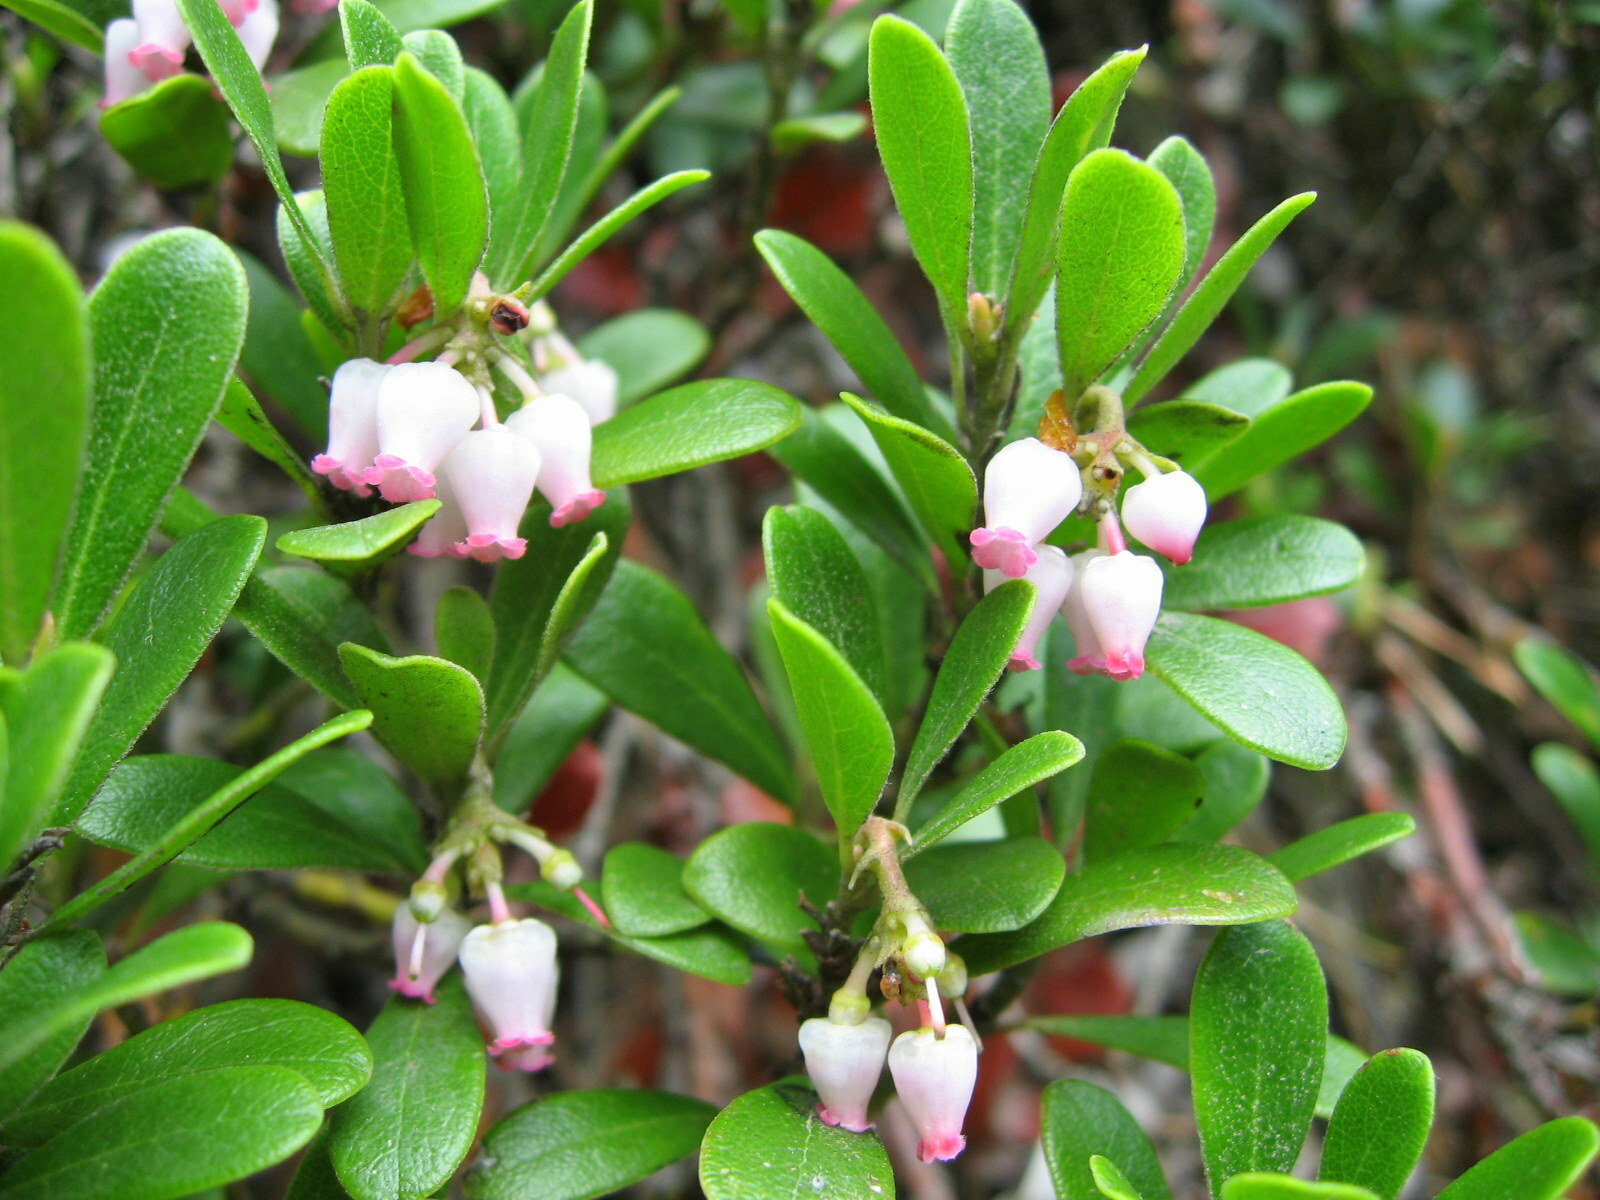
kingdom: Plantae
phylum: Tracheophyta
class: Magnoliopsida
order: Ericales
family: Ericaceae
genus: Arctostaphylos
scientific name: Arctostaphylos uva-ursi
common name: Bearberry
